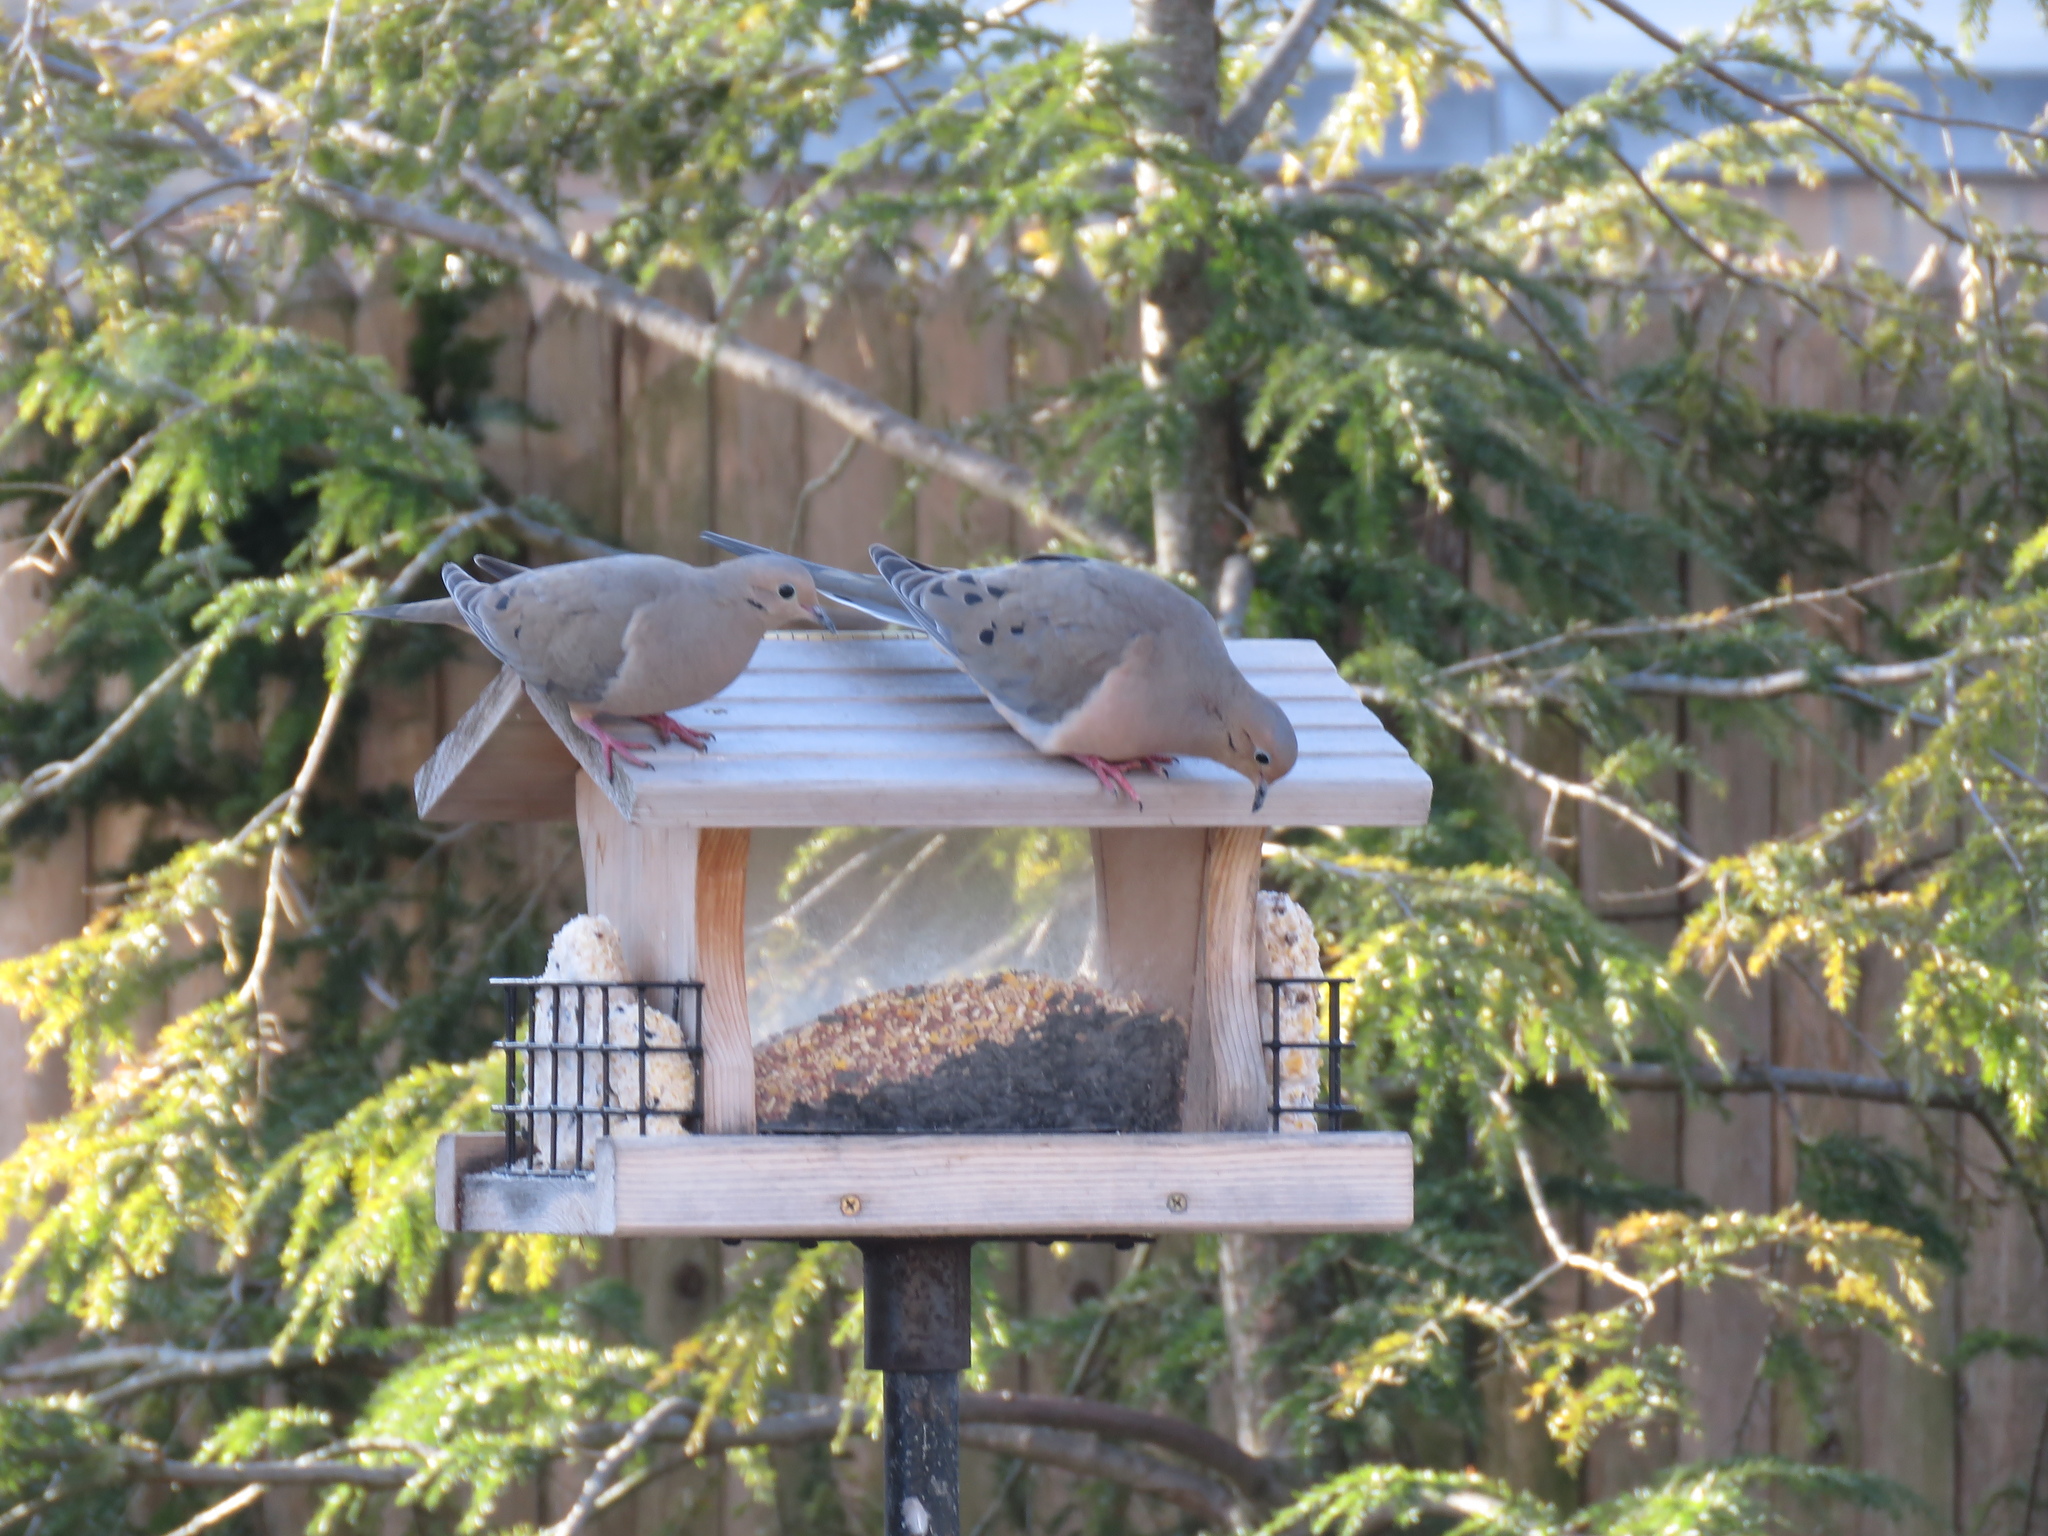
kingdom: Animalia
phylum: Chordata
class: Aves
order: Columbiformes
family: Columbidae
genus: Zenaida
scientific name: Zenaida macroura
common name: Mourning dove
